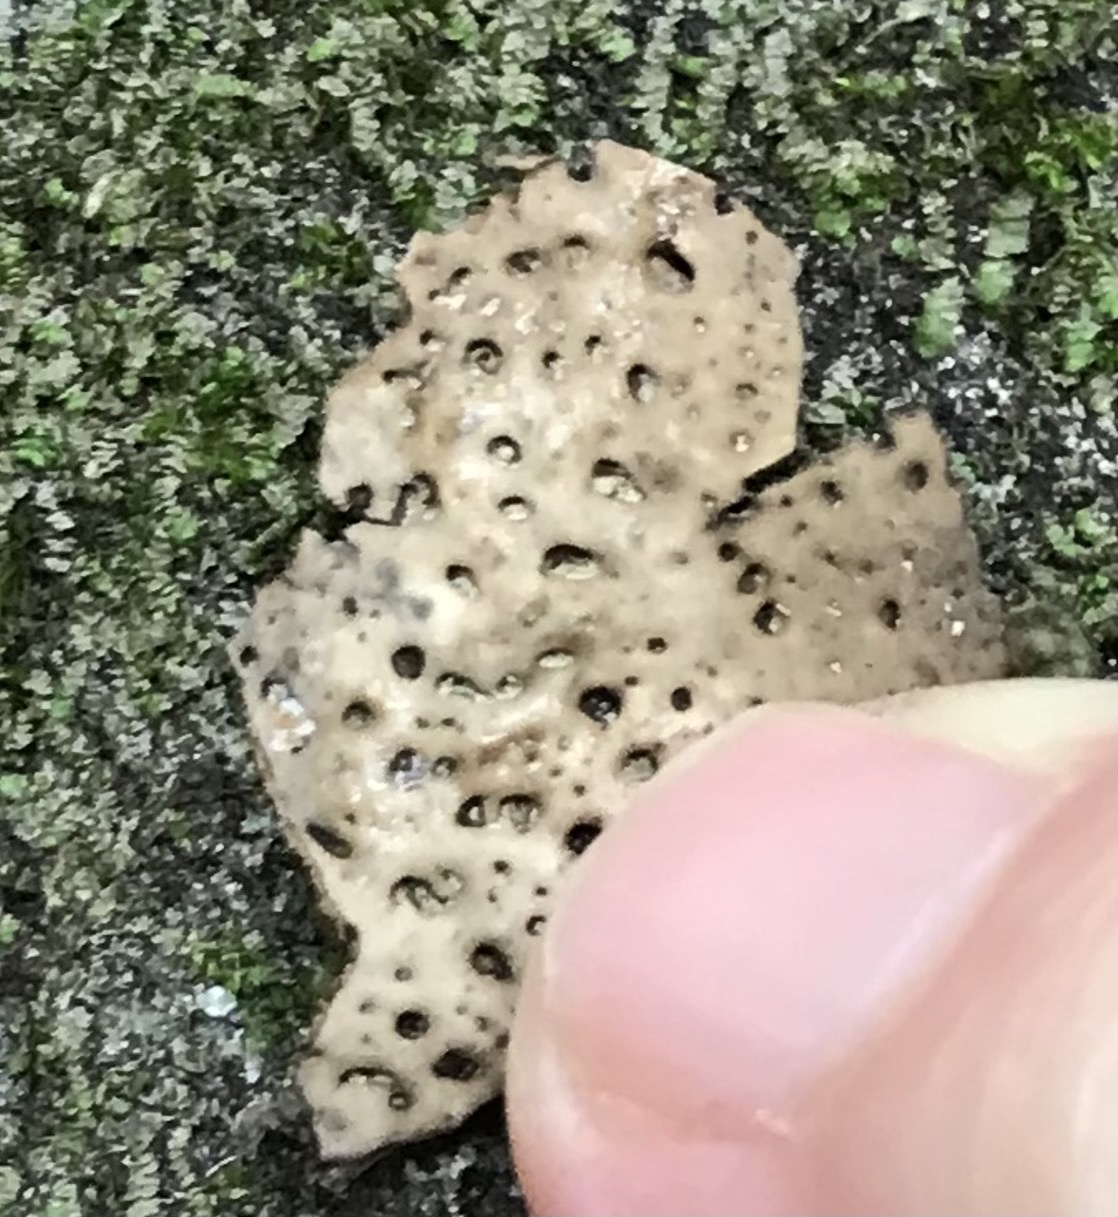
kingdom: Fungi
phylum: Ascomycota
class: Lecanoromycetes
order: Umbilicariales
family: Umbilicariaceae
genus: Lasallia
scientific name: Lasallia papulosa
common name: Common toadskin lichen
